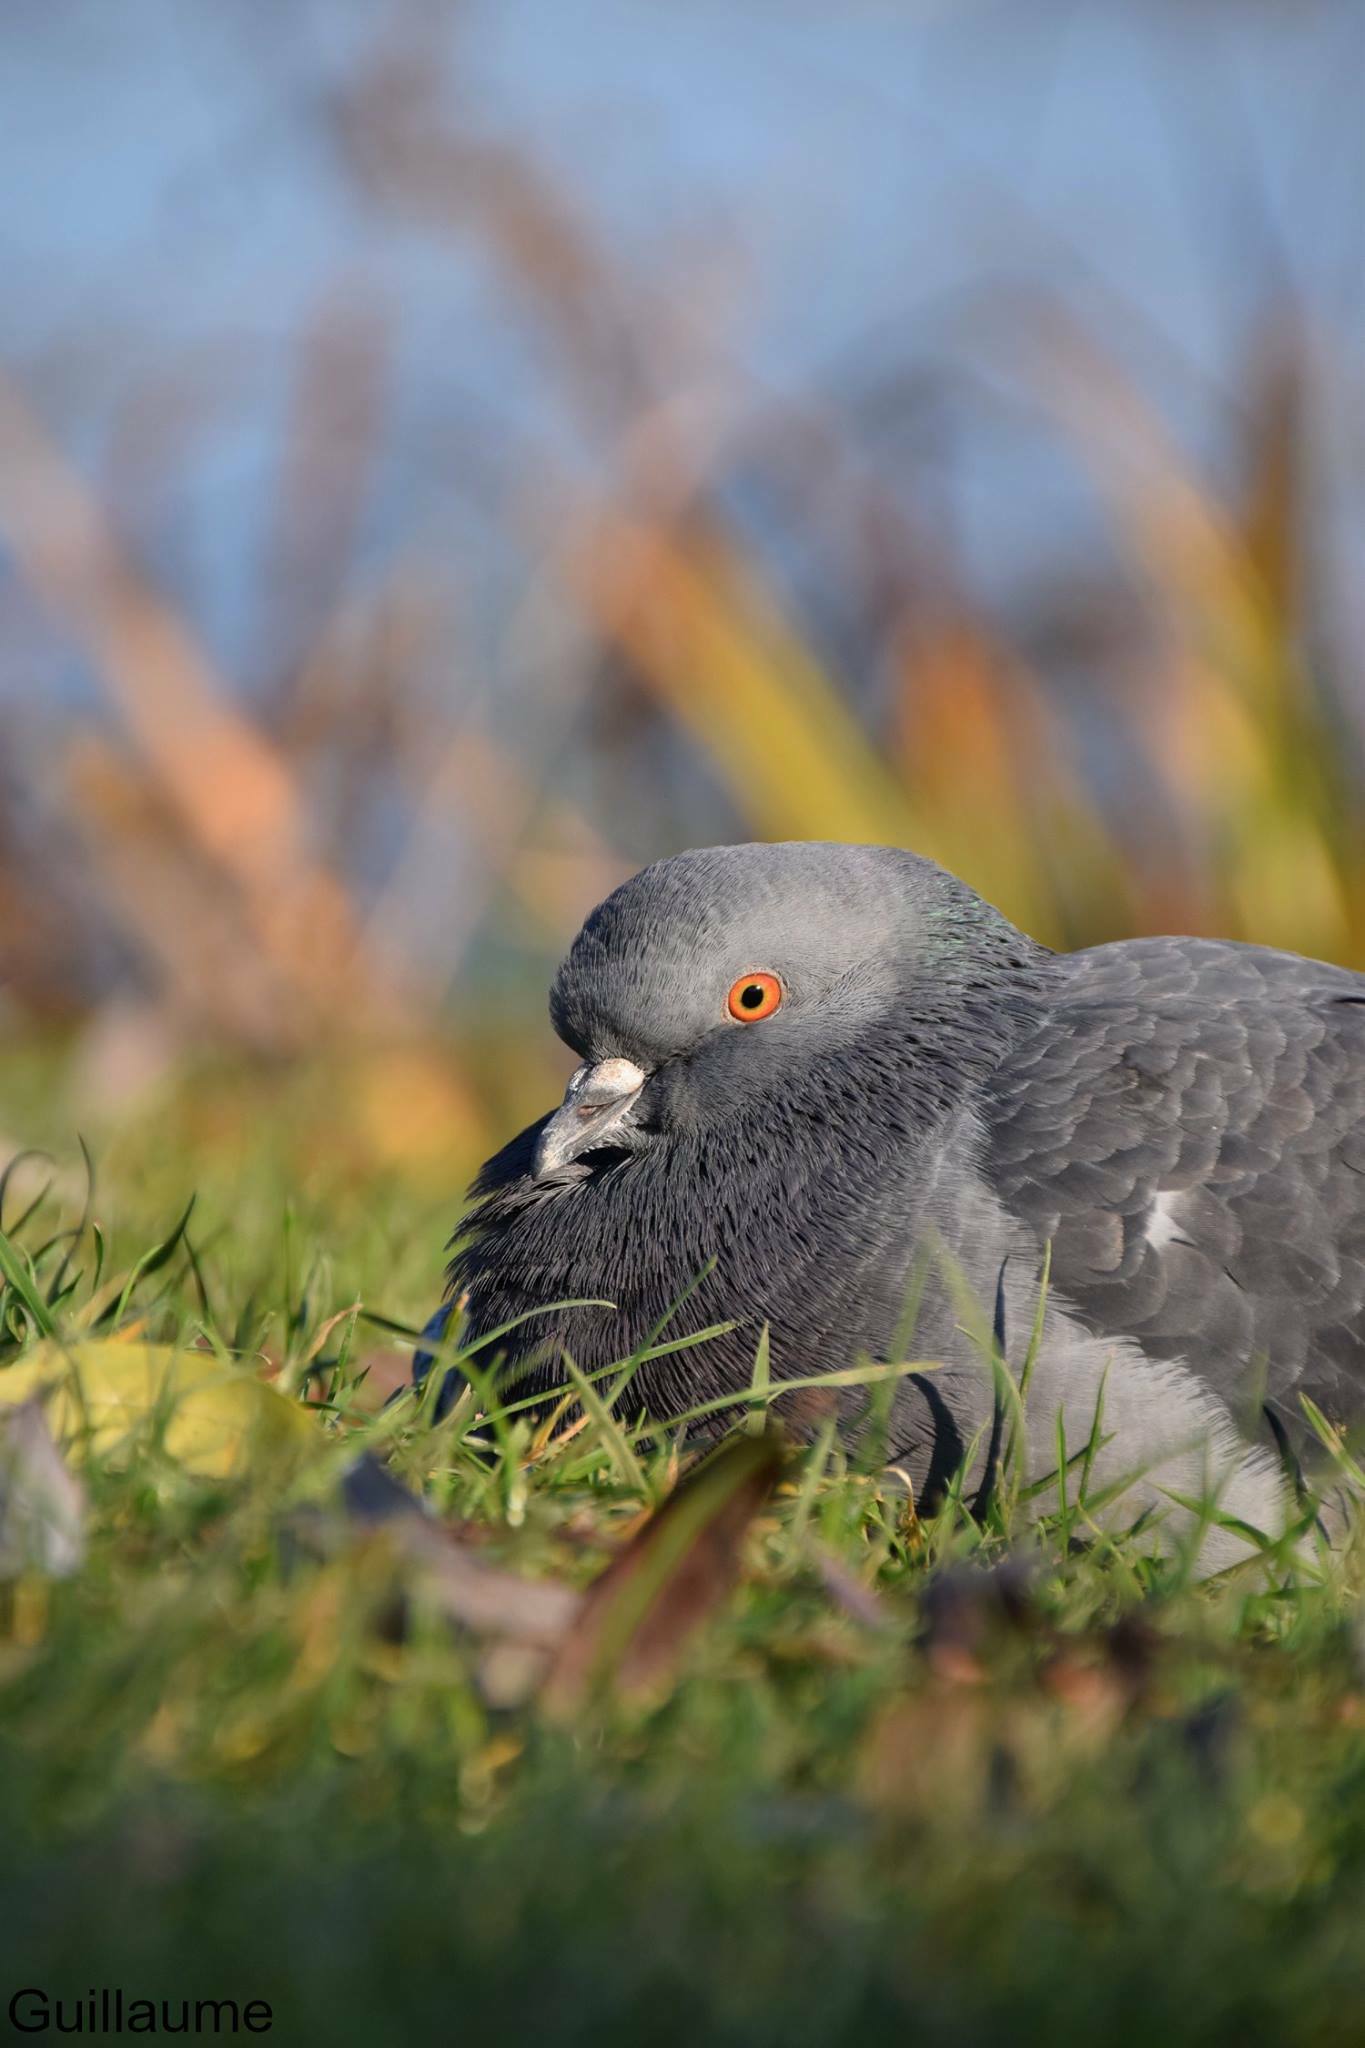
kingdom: Animalia
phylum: Chordata
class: Aves
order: Columbiformes
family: Columbidae
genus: Columba
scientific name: Columba livia
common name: Rock pigeon
